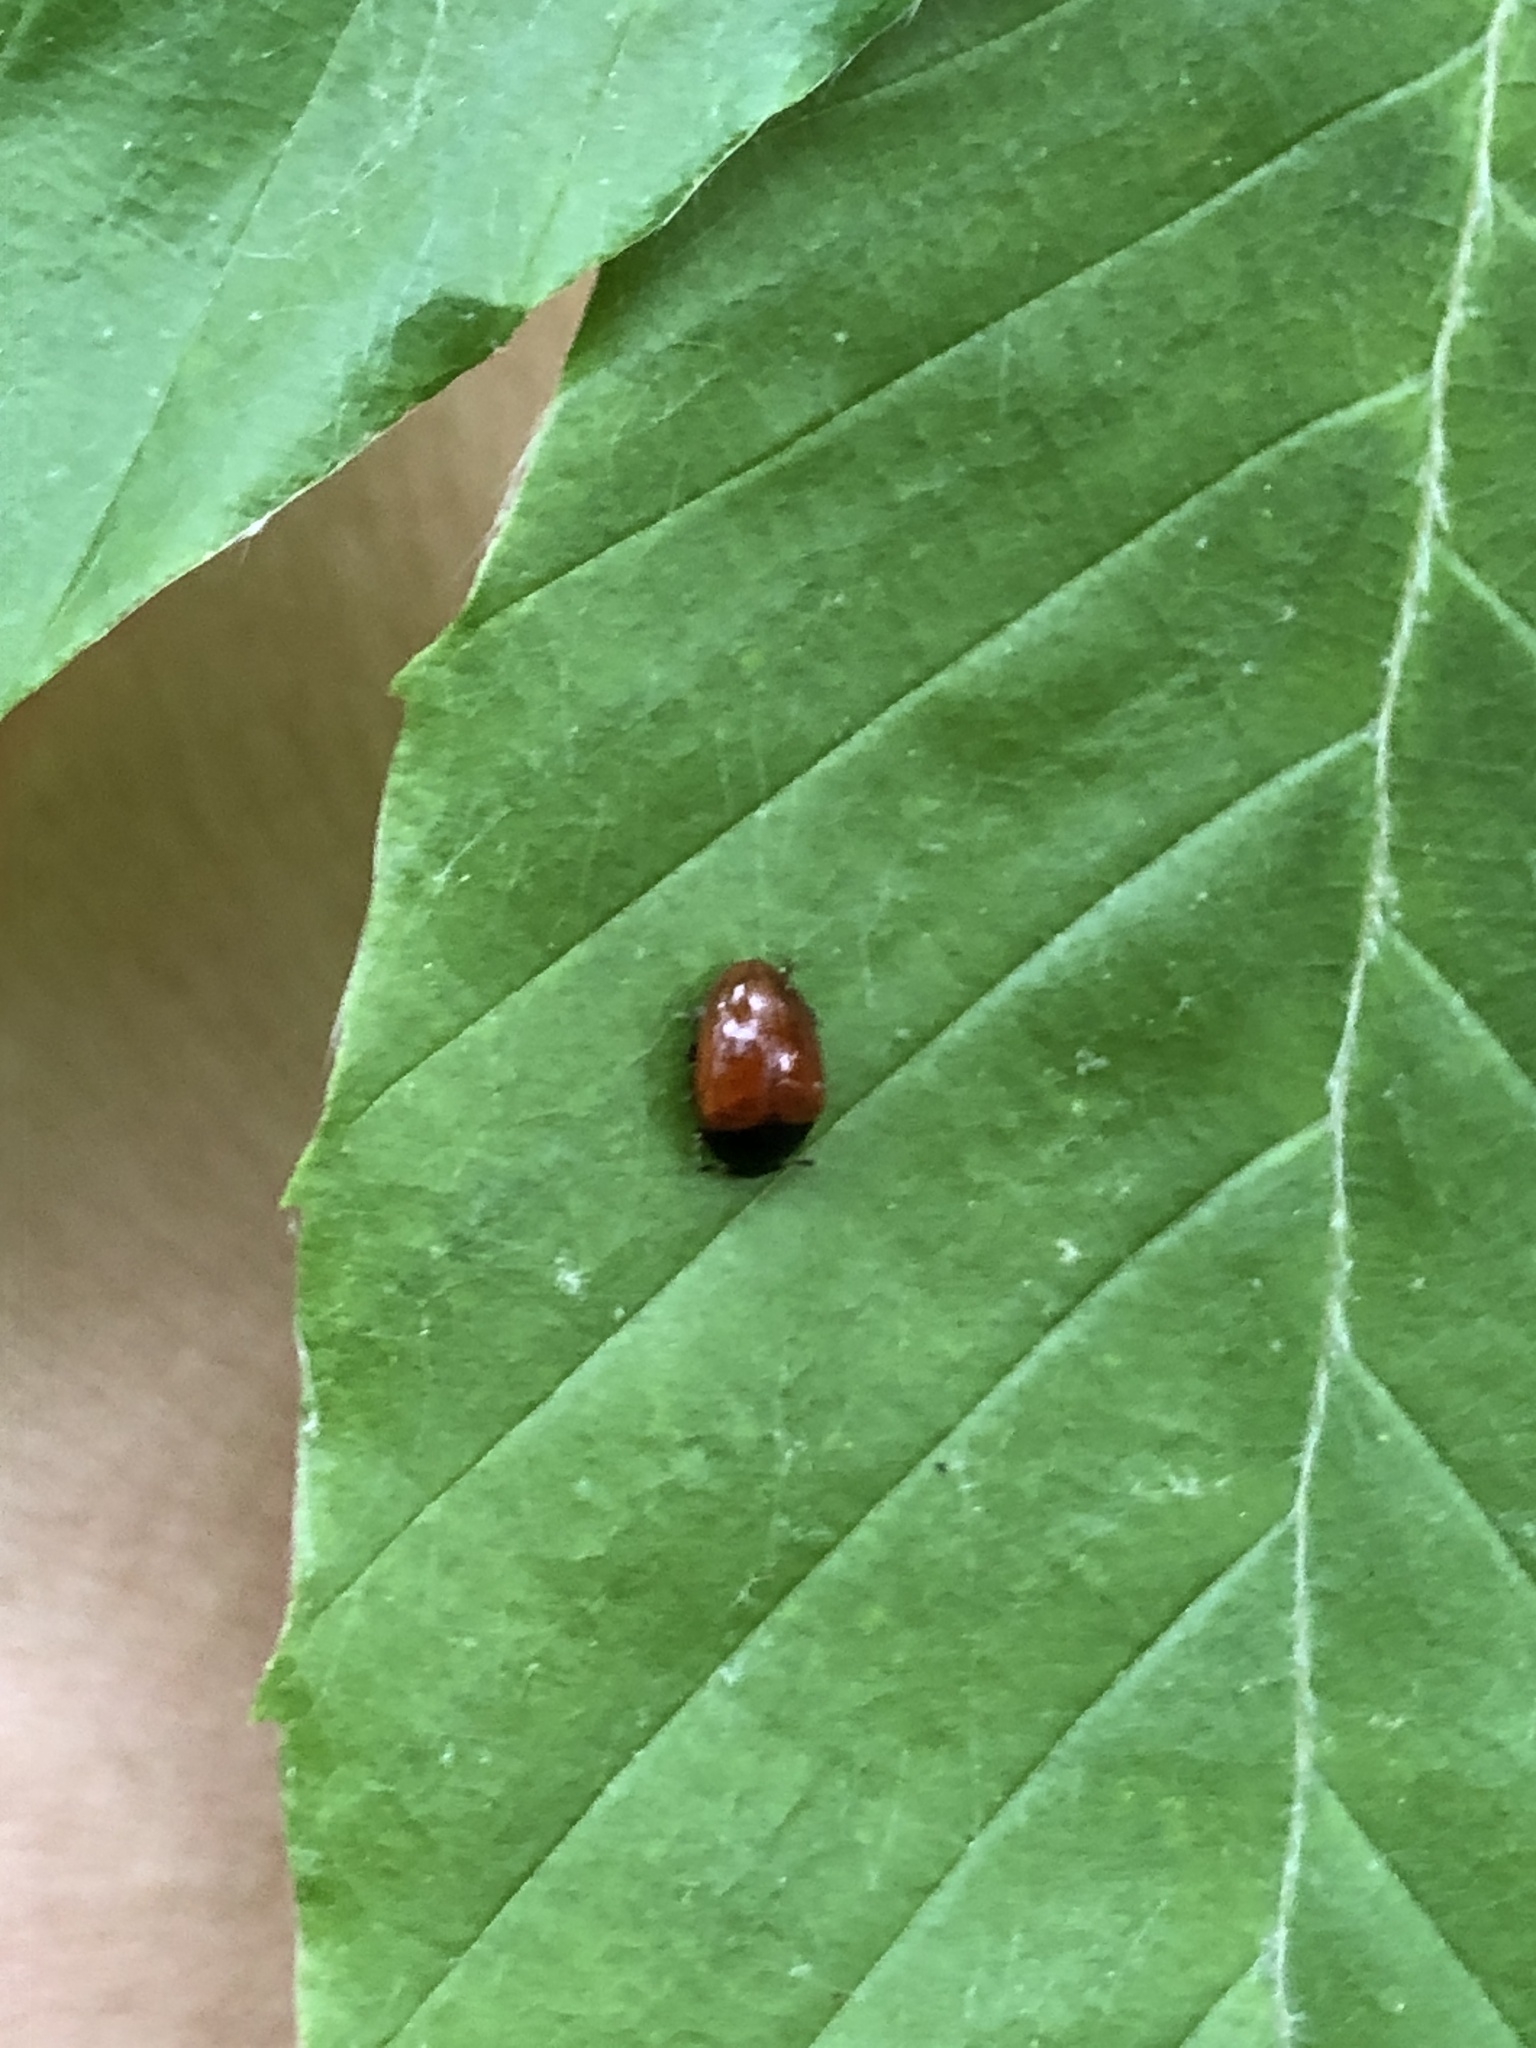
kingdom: Animalia
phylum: Arthropoda
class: Insecta
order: Coleoptera
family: Erotylidae
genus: Tritoma
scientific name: Tritoma sanguinipennis
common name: Red-winged tritoma
